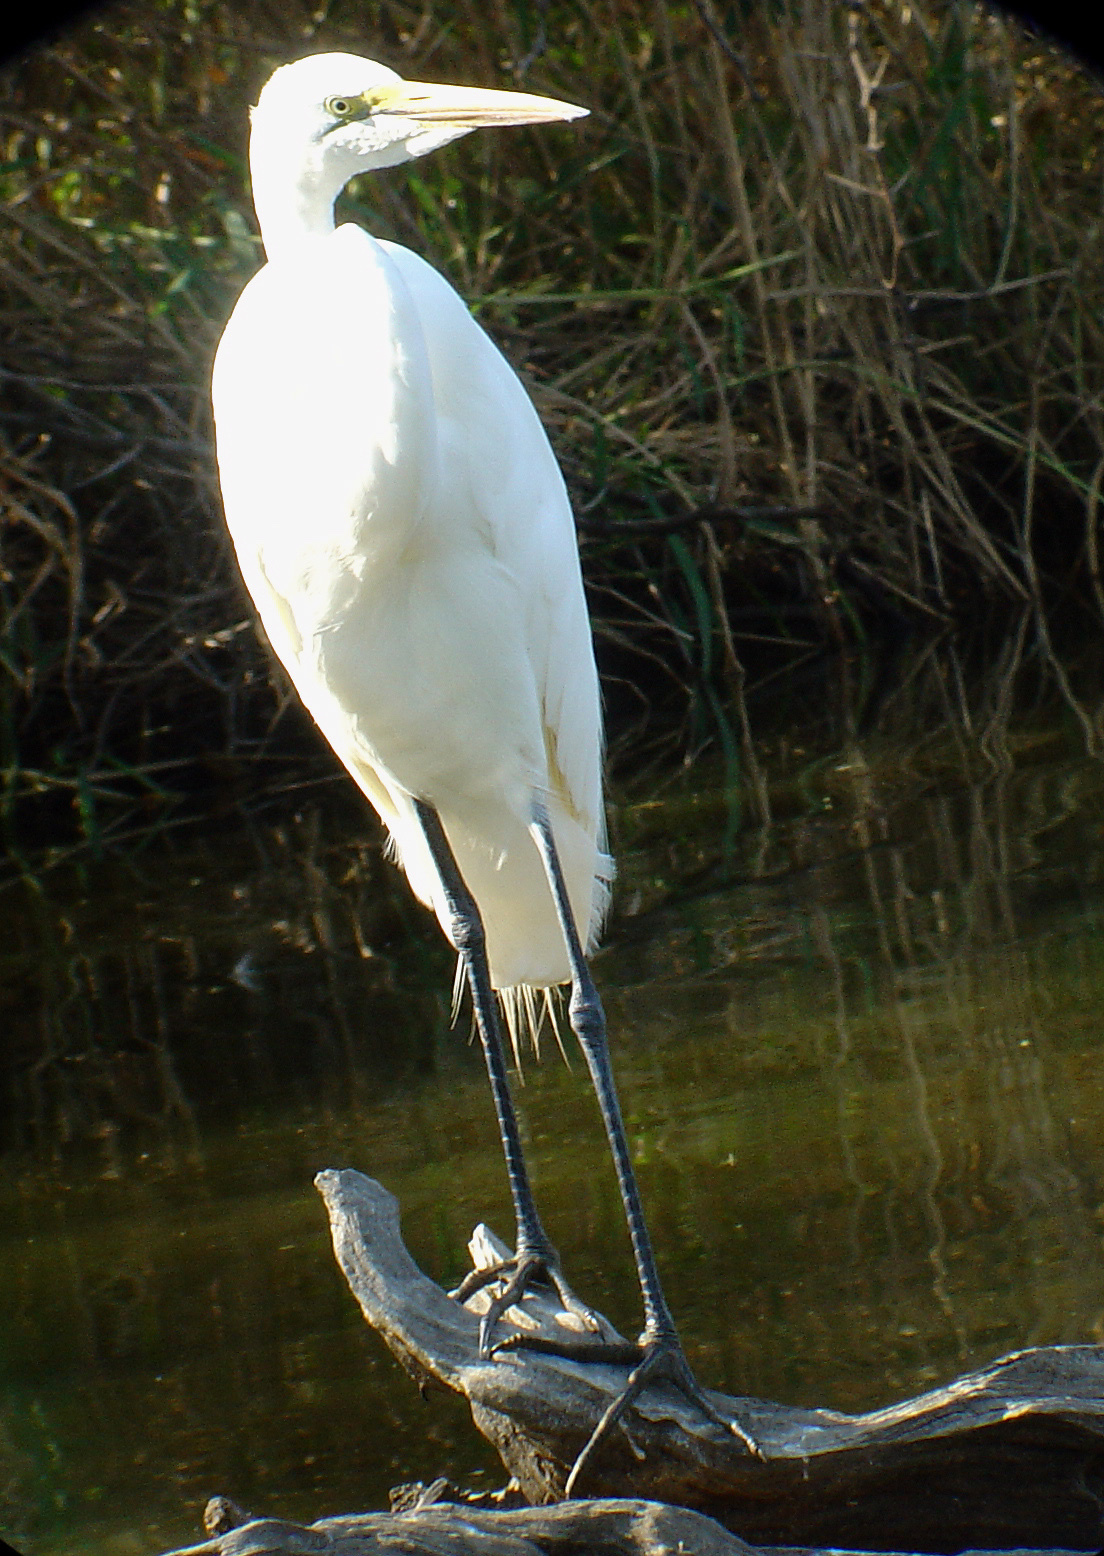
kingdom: Animalia
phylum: Chordata
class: Aves
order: Pelecaniformes
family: Ardeidae
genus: Ardea
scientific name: Ardea alba
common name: Great egret
